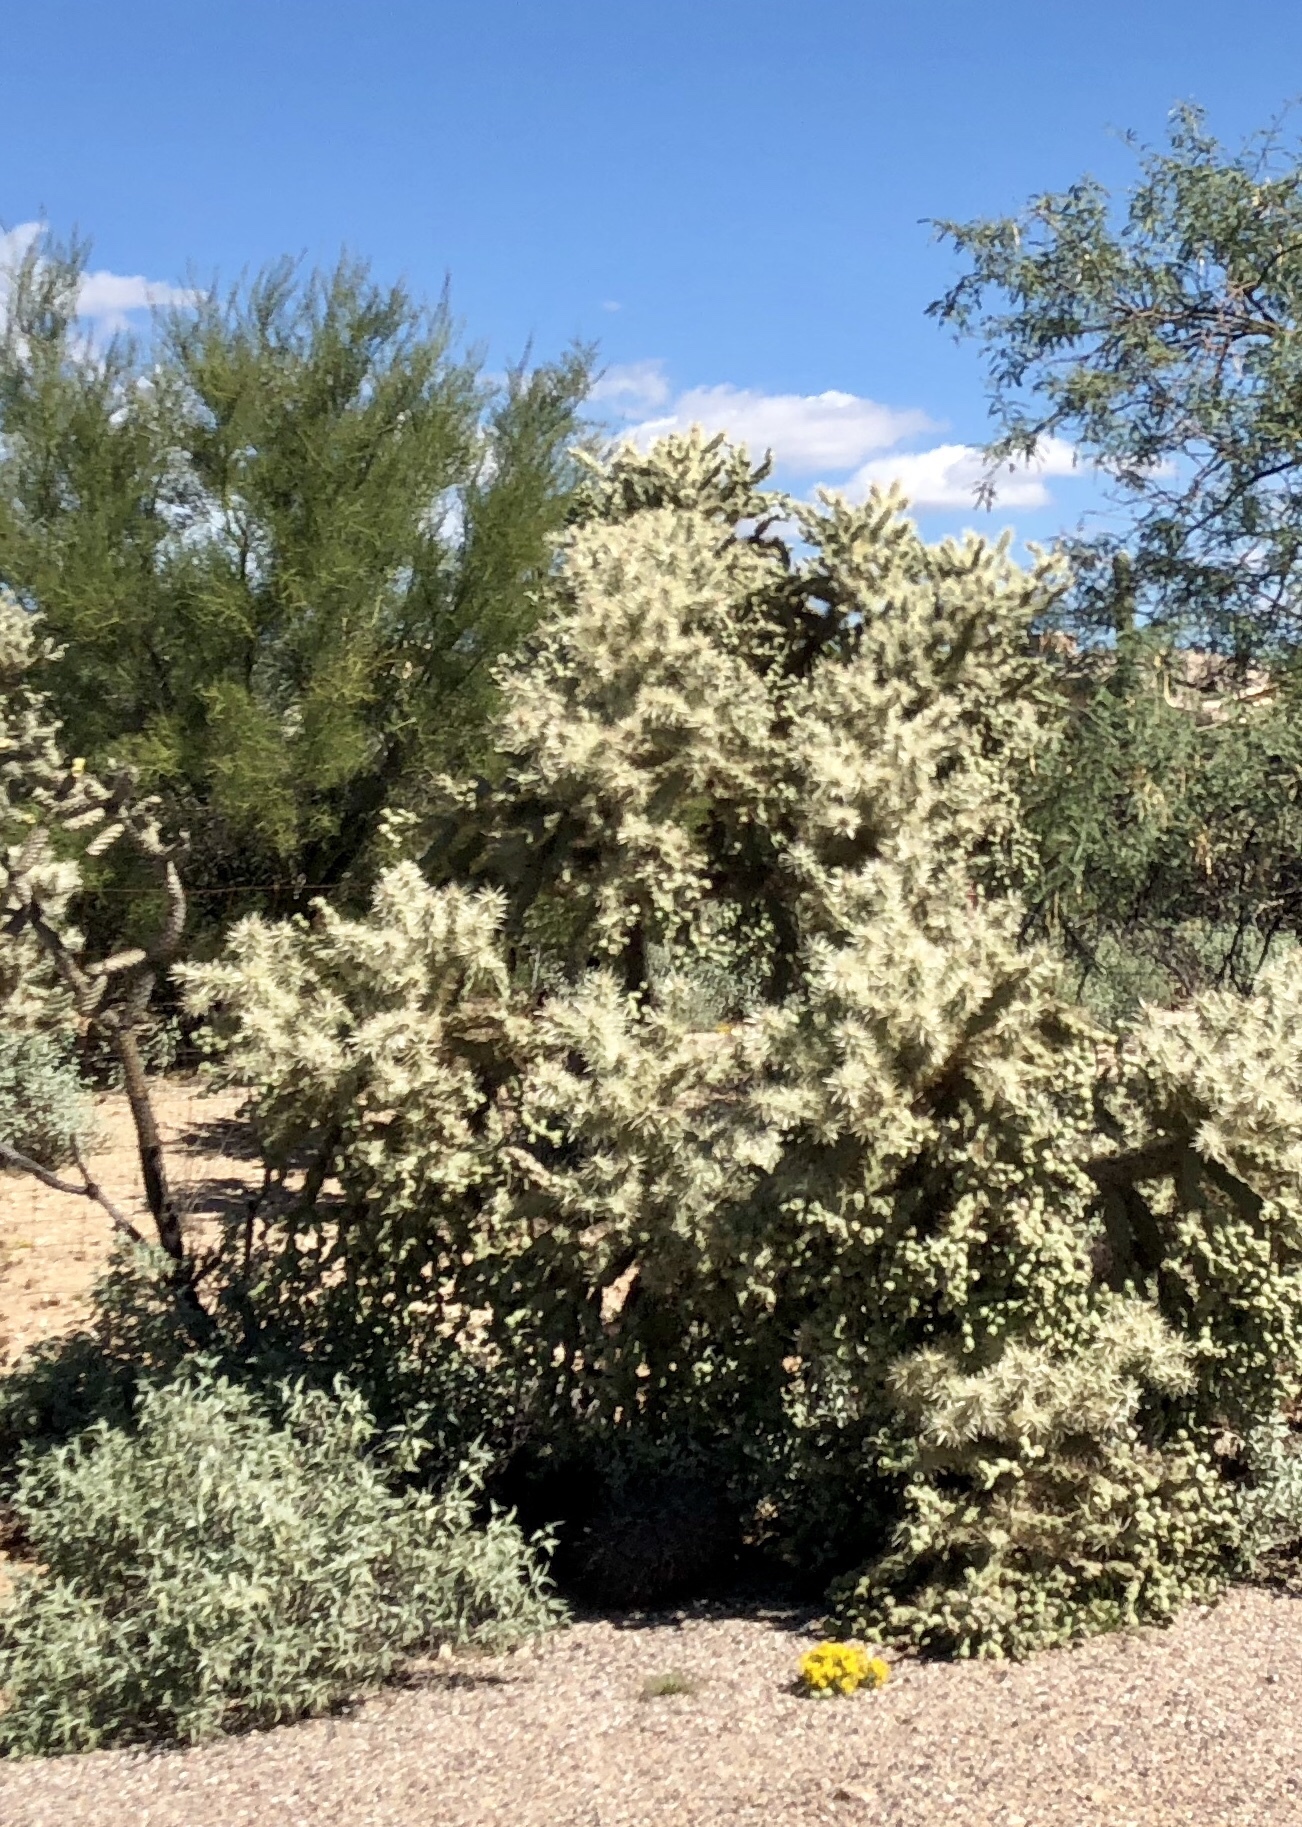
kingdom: Plantae
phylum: Tracheophyta
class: Magnoliopsida
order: Caryophyllales
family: Cactaceae
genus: Cylindropuntia
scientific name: Cylindropuntia fulgida
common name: Jumping cholla
